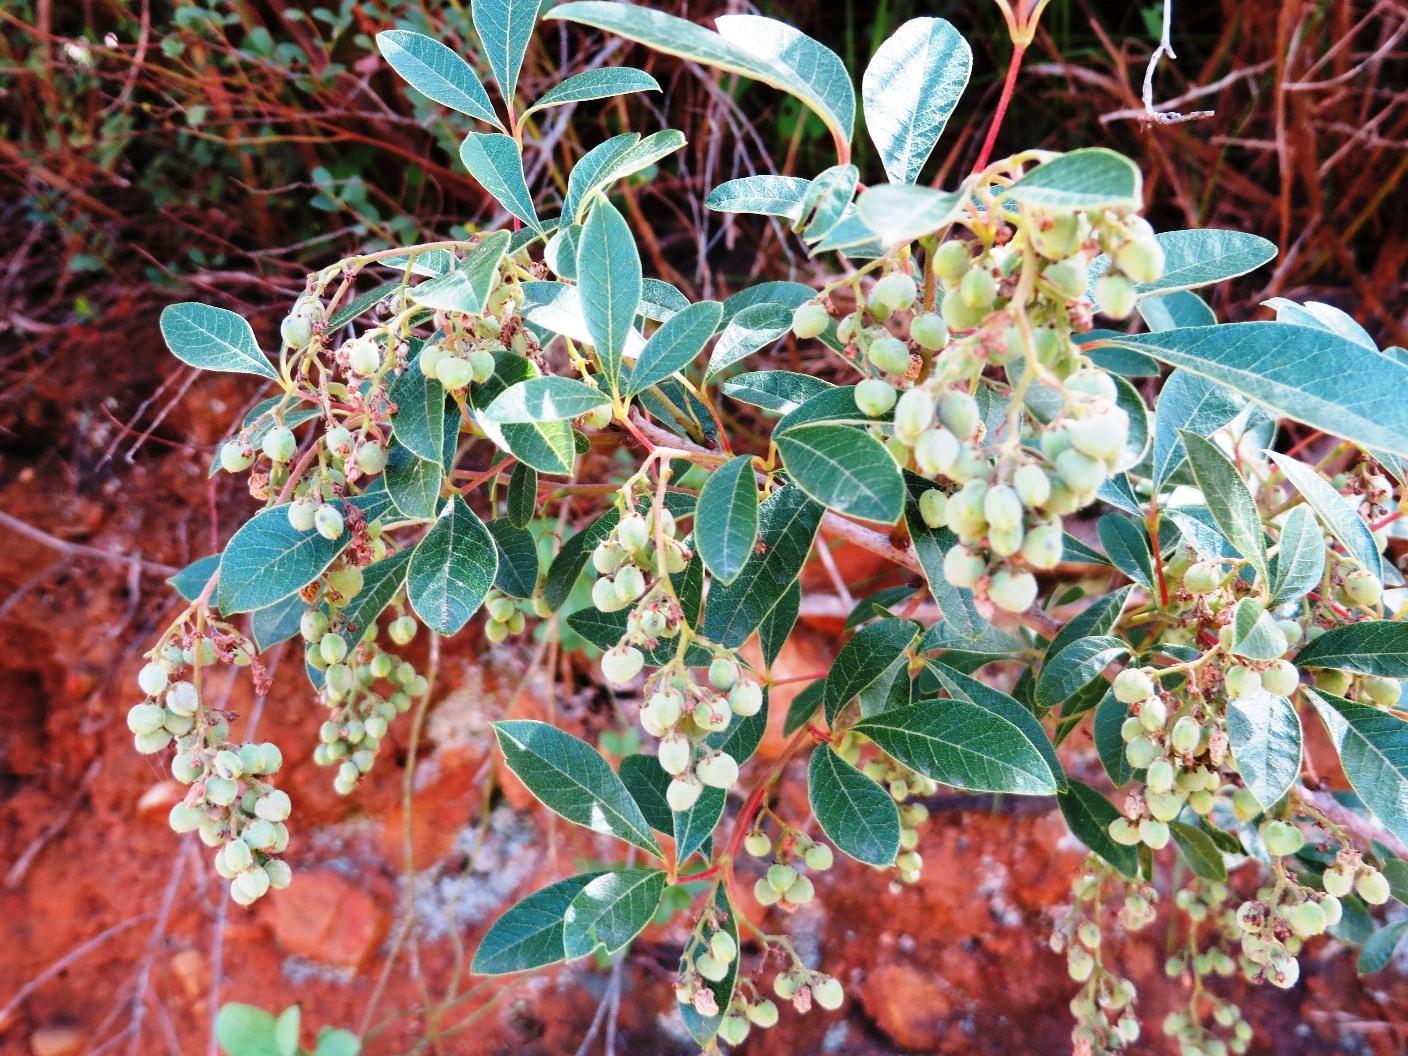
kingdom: Plantae
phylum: Tracheophyta
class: Magnoliopsida
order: Sapindales
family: Anacardiaceae
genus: Searsia
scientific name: Searsia tomentosa
